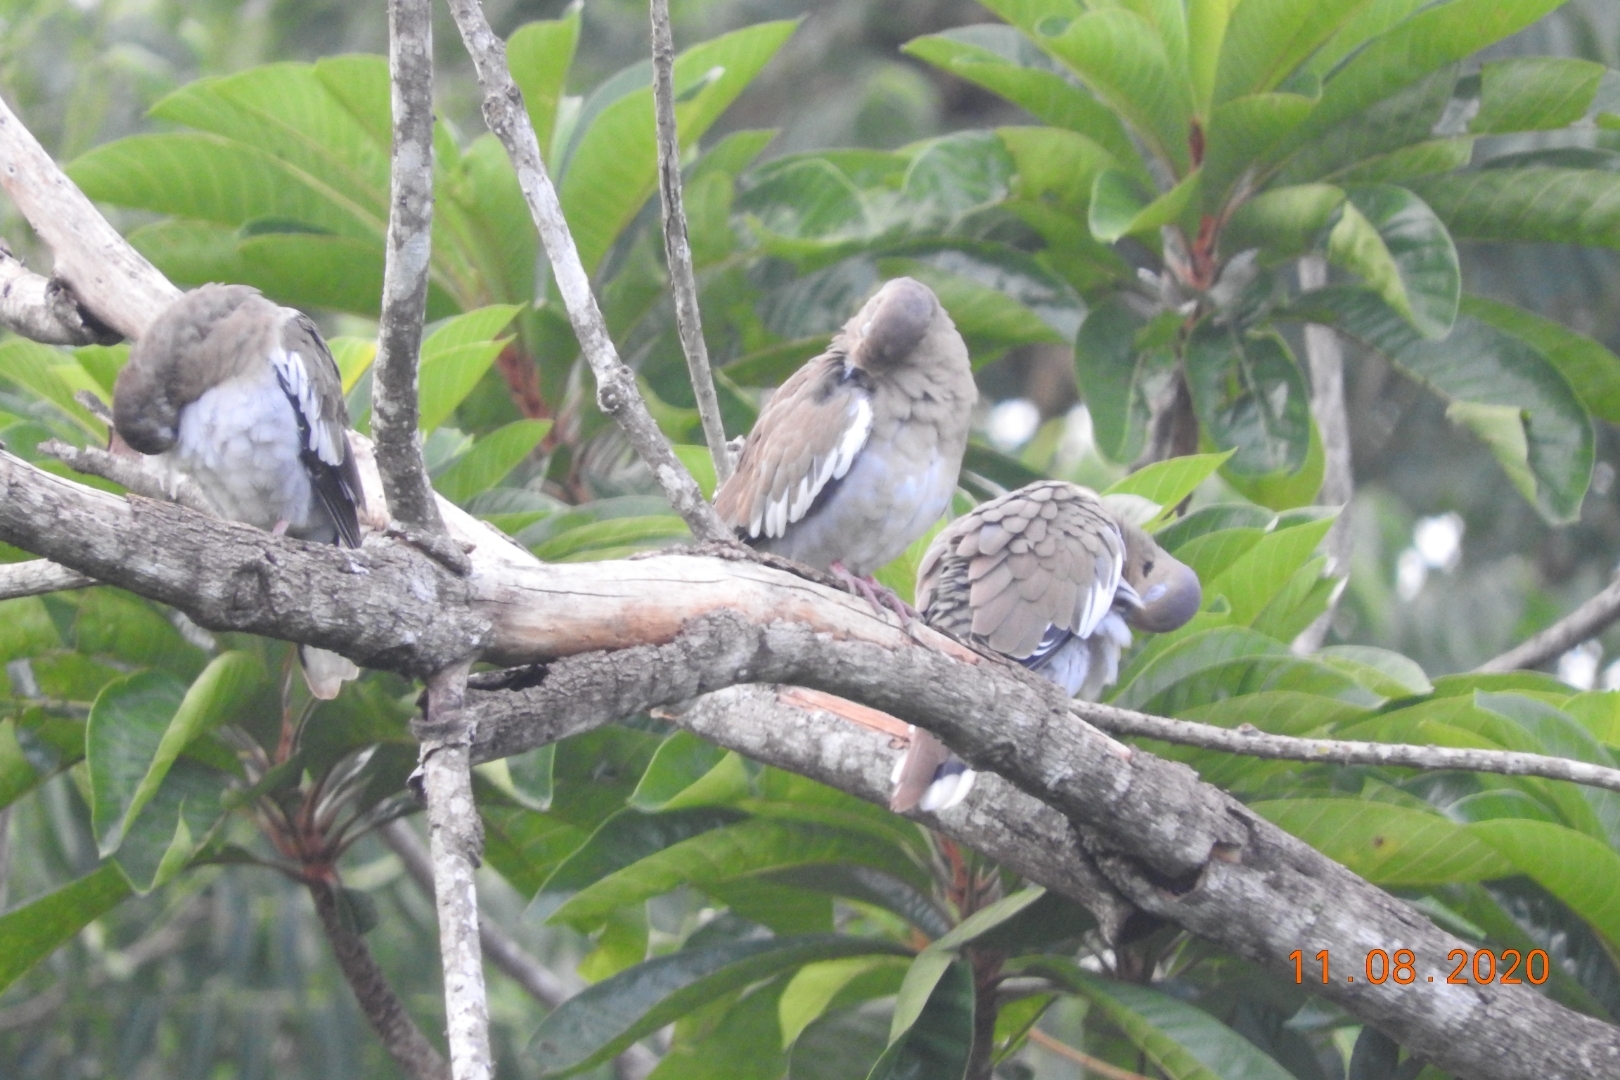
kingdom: Animalia
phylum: Chordata
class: Aves
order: Columbiformes
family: Columbidae
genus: Zenaida
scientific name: Zenaida asiatica
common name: White-winged dove
